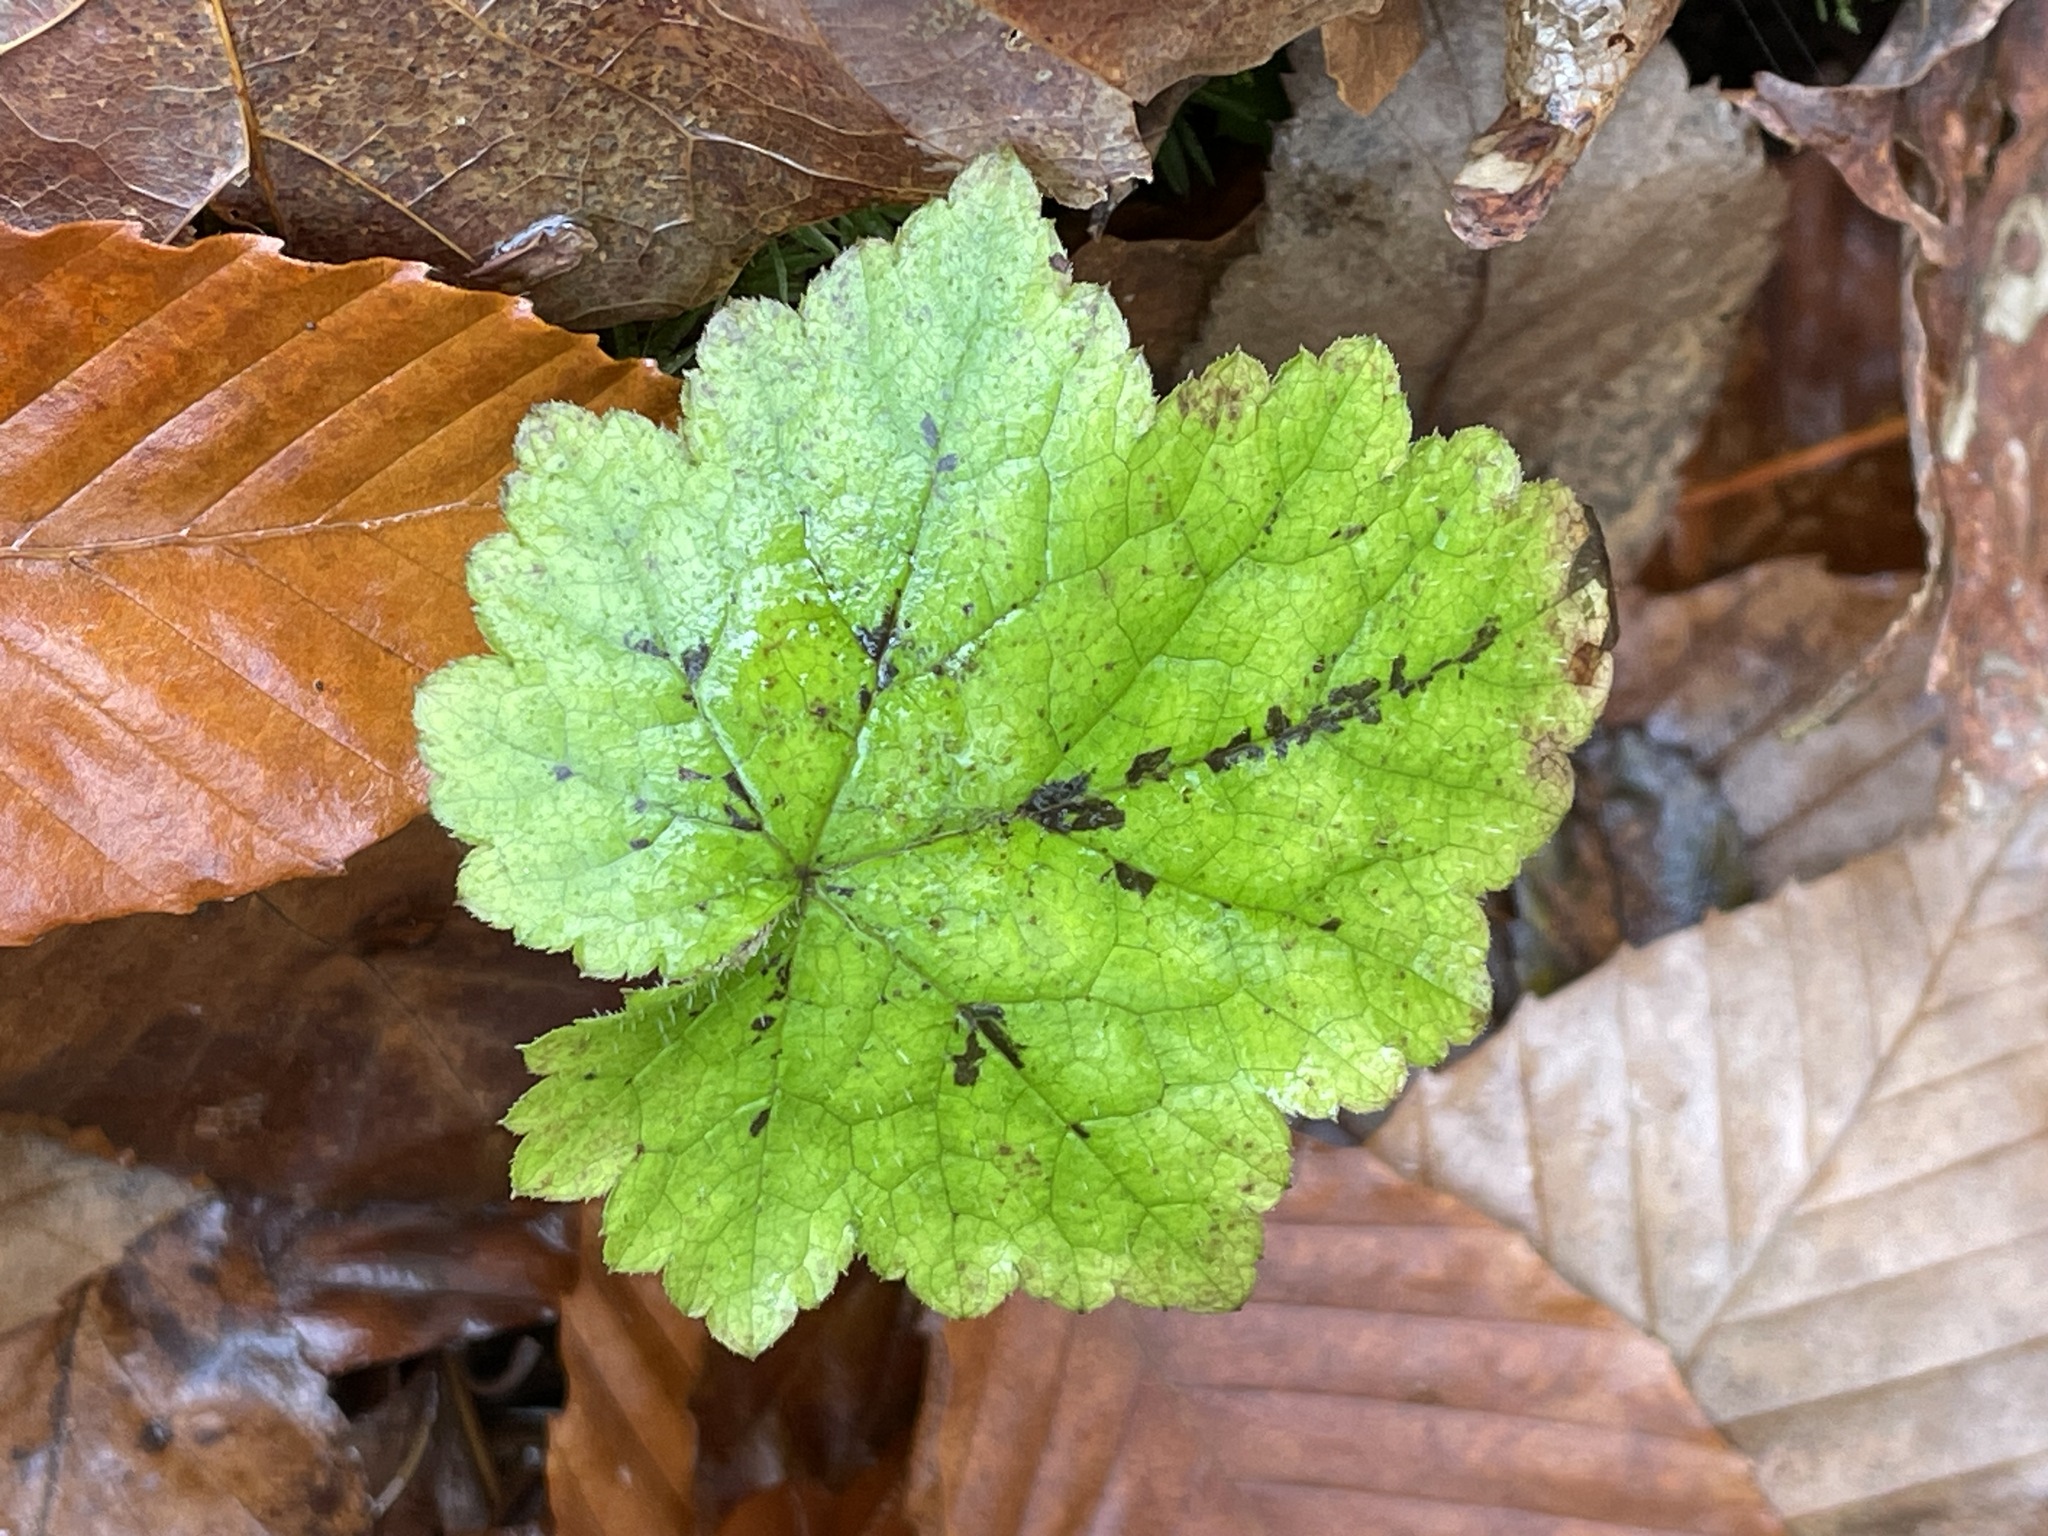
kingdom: Plantae
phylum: Tracheophyta
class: Magnoliopsida
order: Saxifragales
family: Saxifragaceae
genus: Tiarella
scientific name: Tiarella stolonifera
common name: Stoloniferous foamflower
